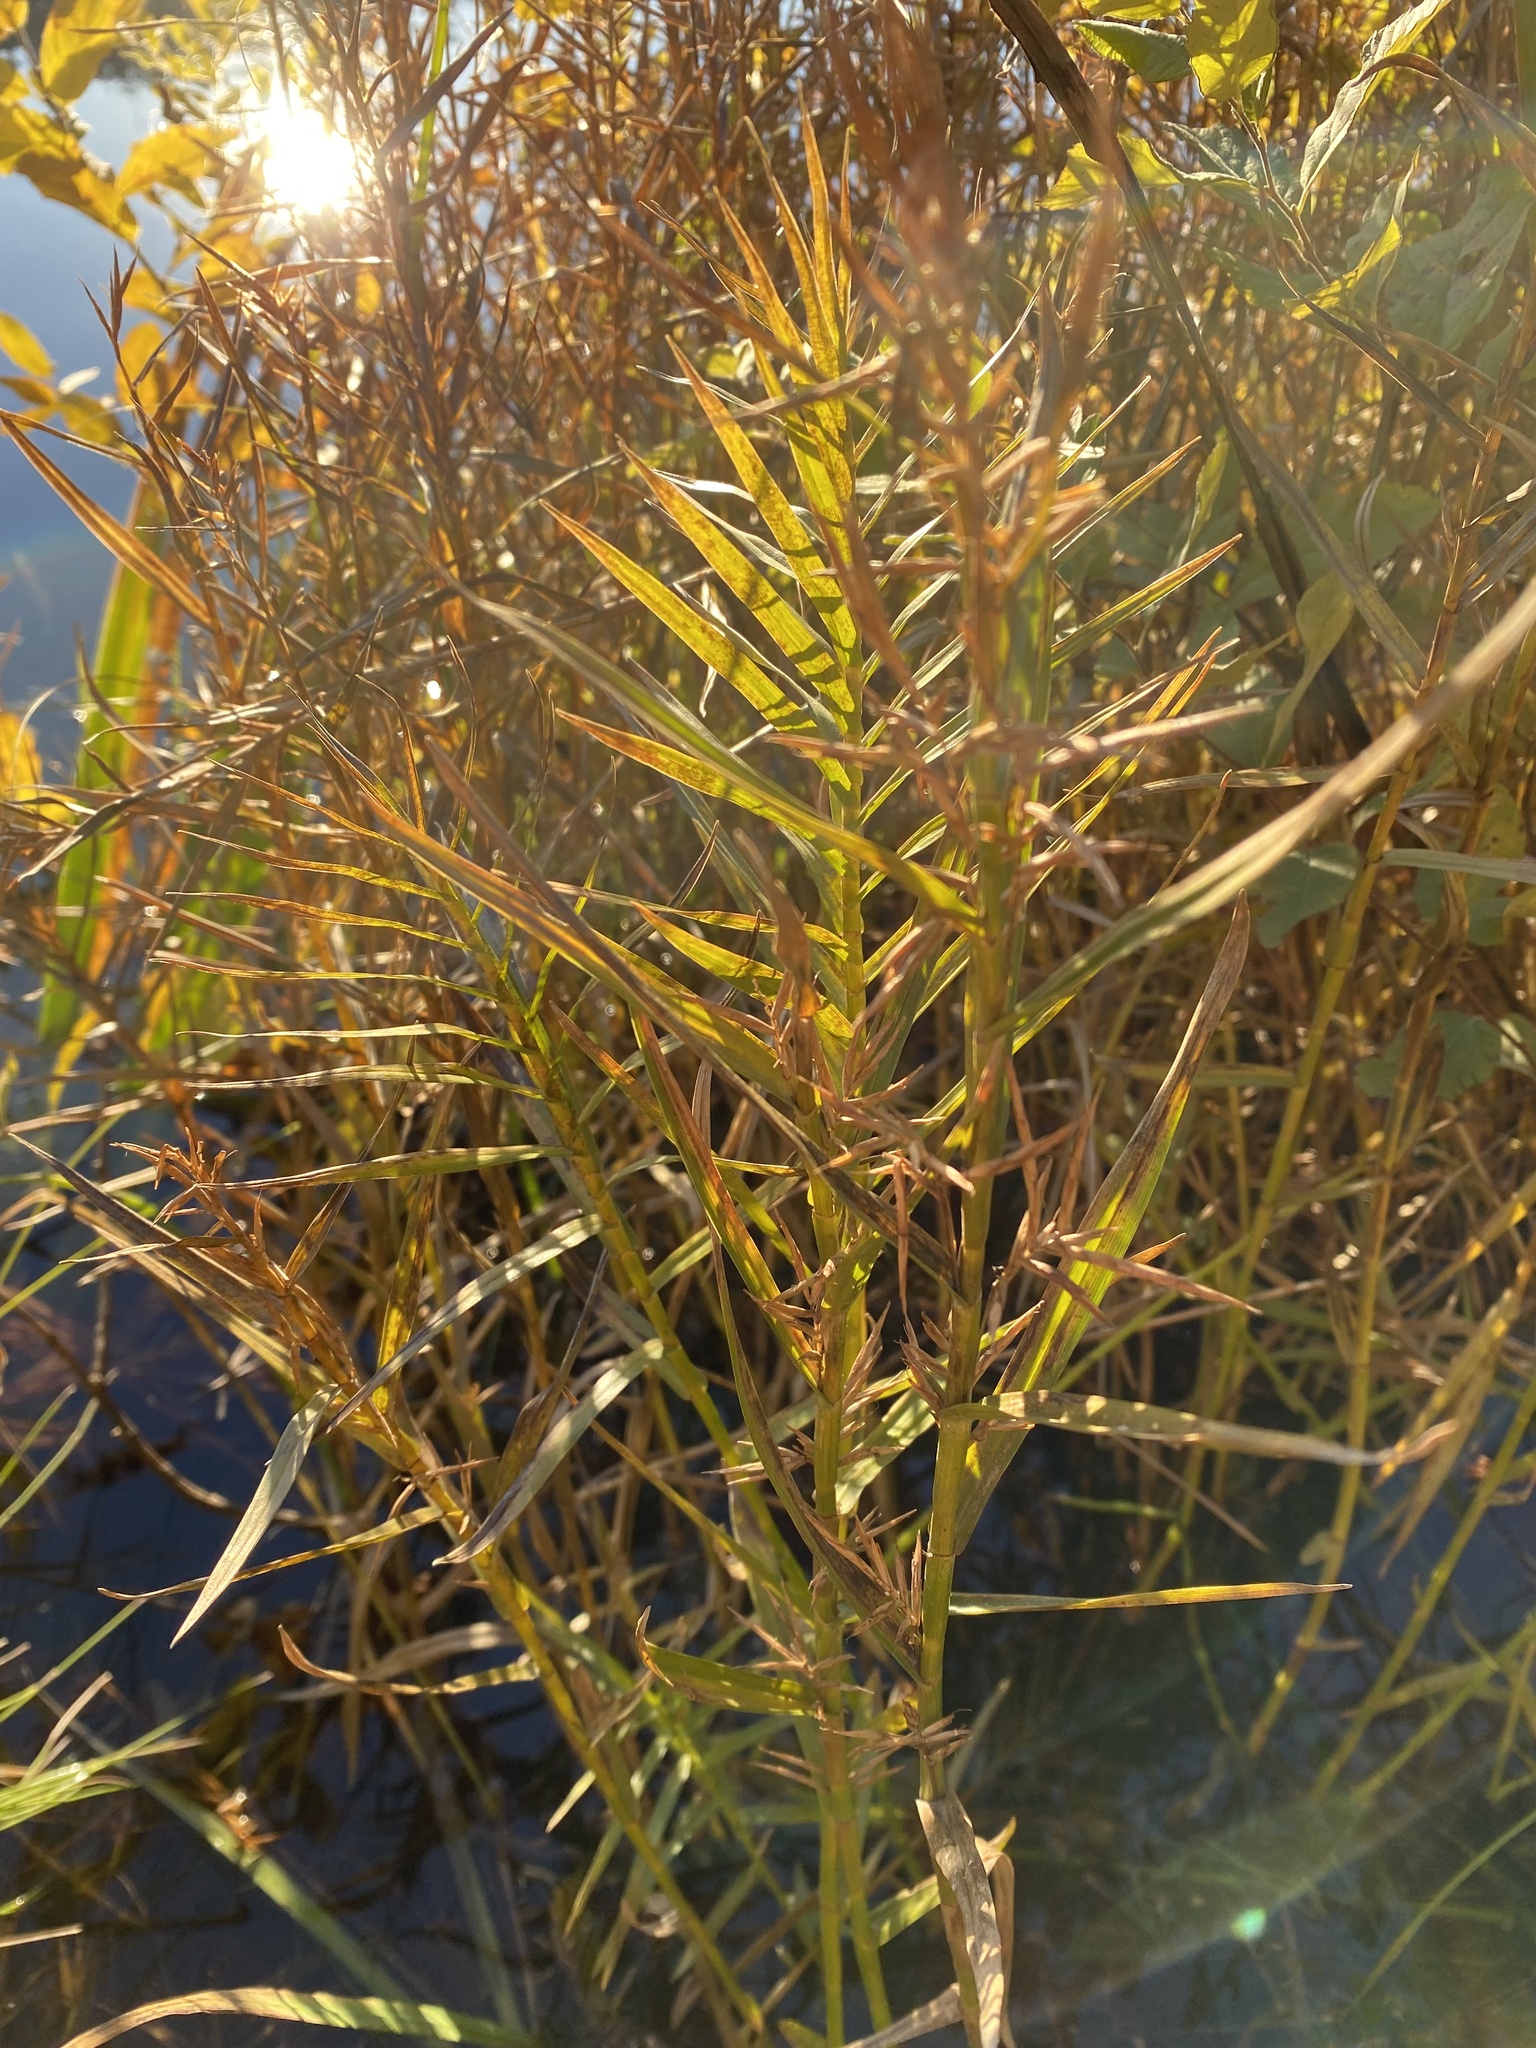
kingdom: Plantae
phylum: Tracheophyta
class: Liliopsida
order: Poales
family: Cyperaceae
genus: Dulichium
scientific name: Dulichium arundinaceum
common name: Three-way sedge
